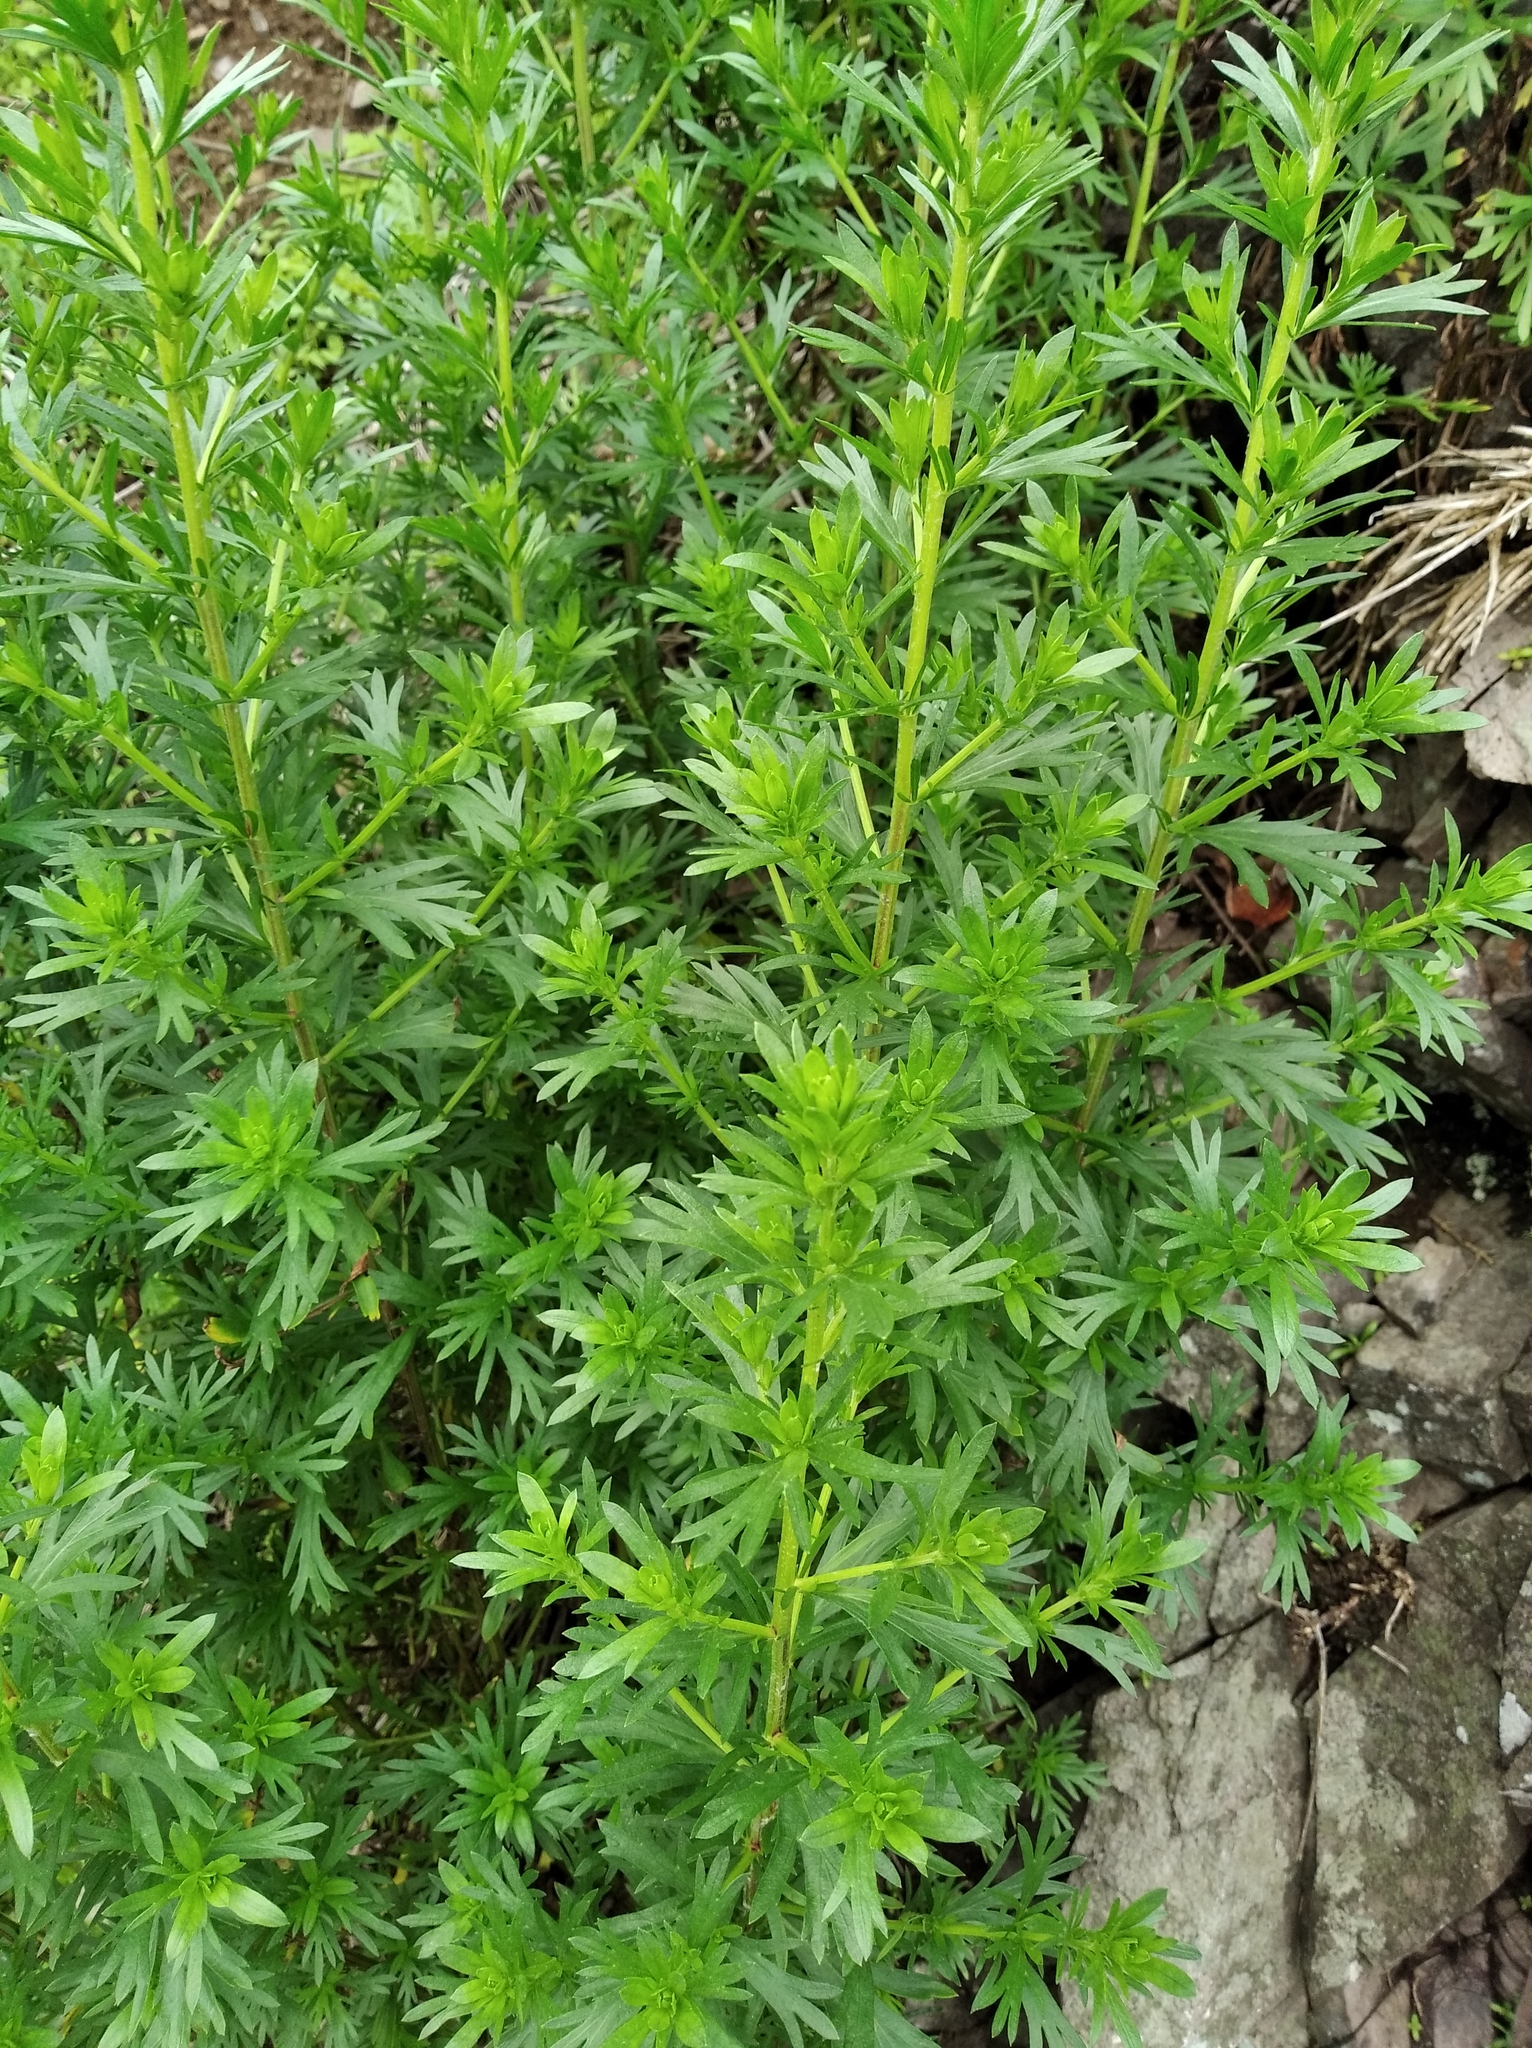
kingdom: Plantae
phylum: Tracheophyta
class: Magnoliopsida
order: Asterales
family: Asteraceae
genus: Artemisia
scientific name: Artemisia manshurica
